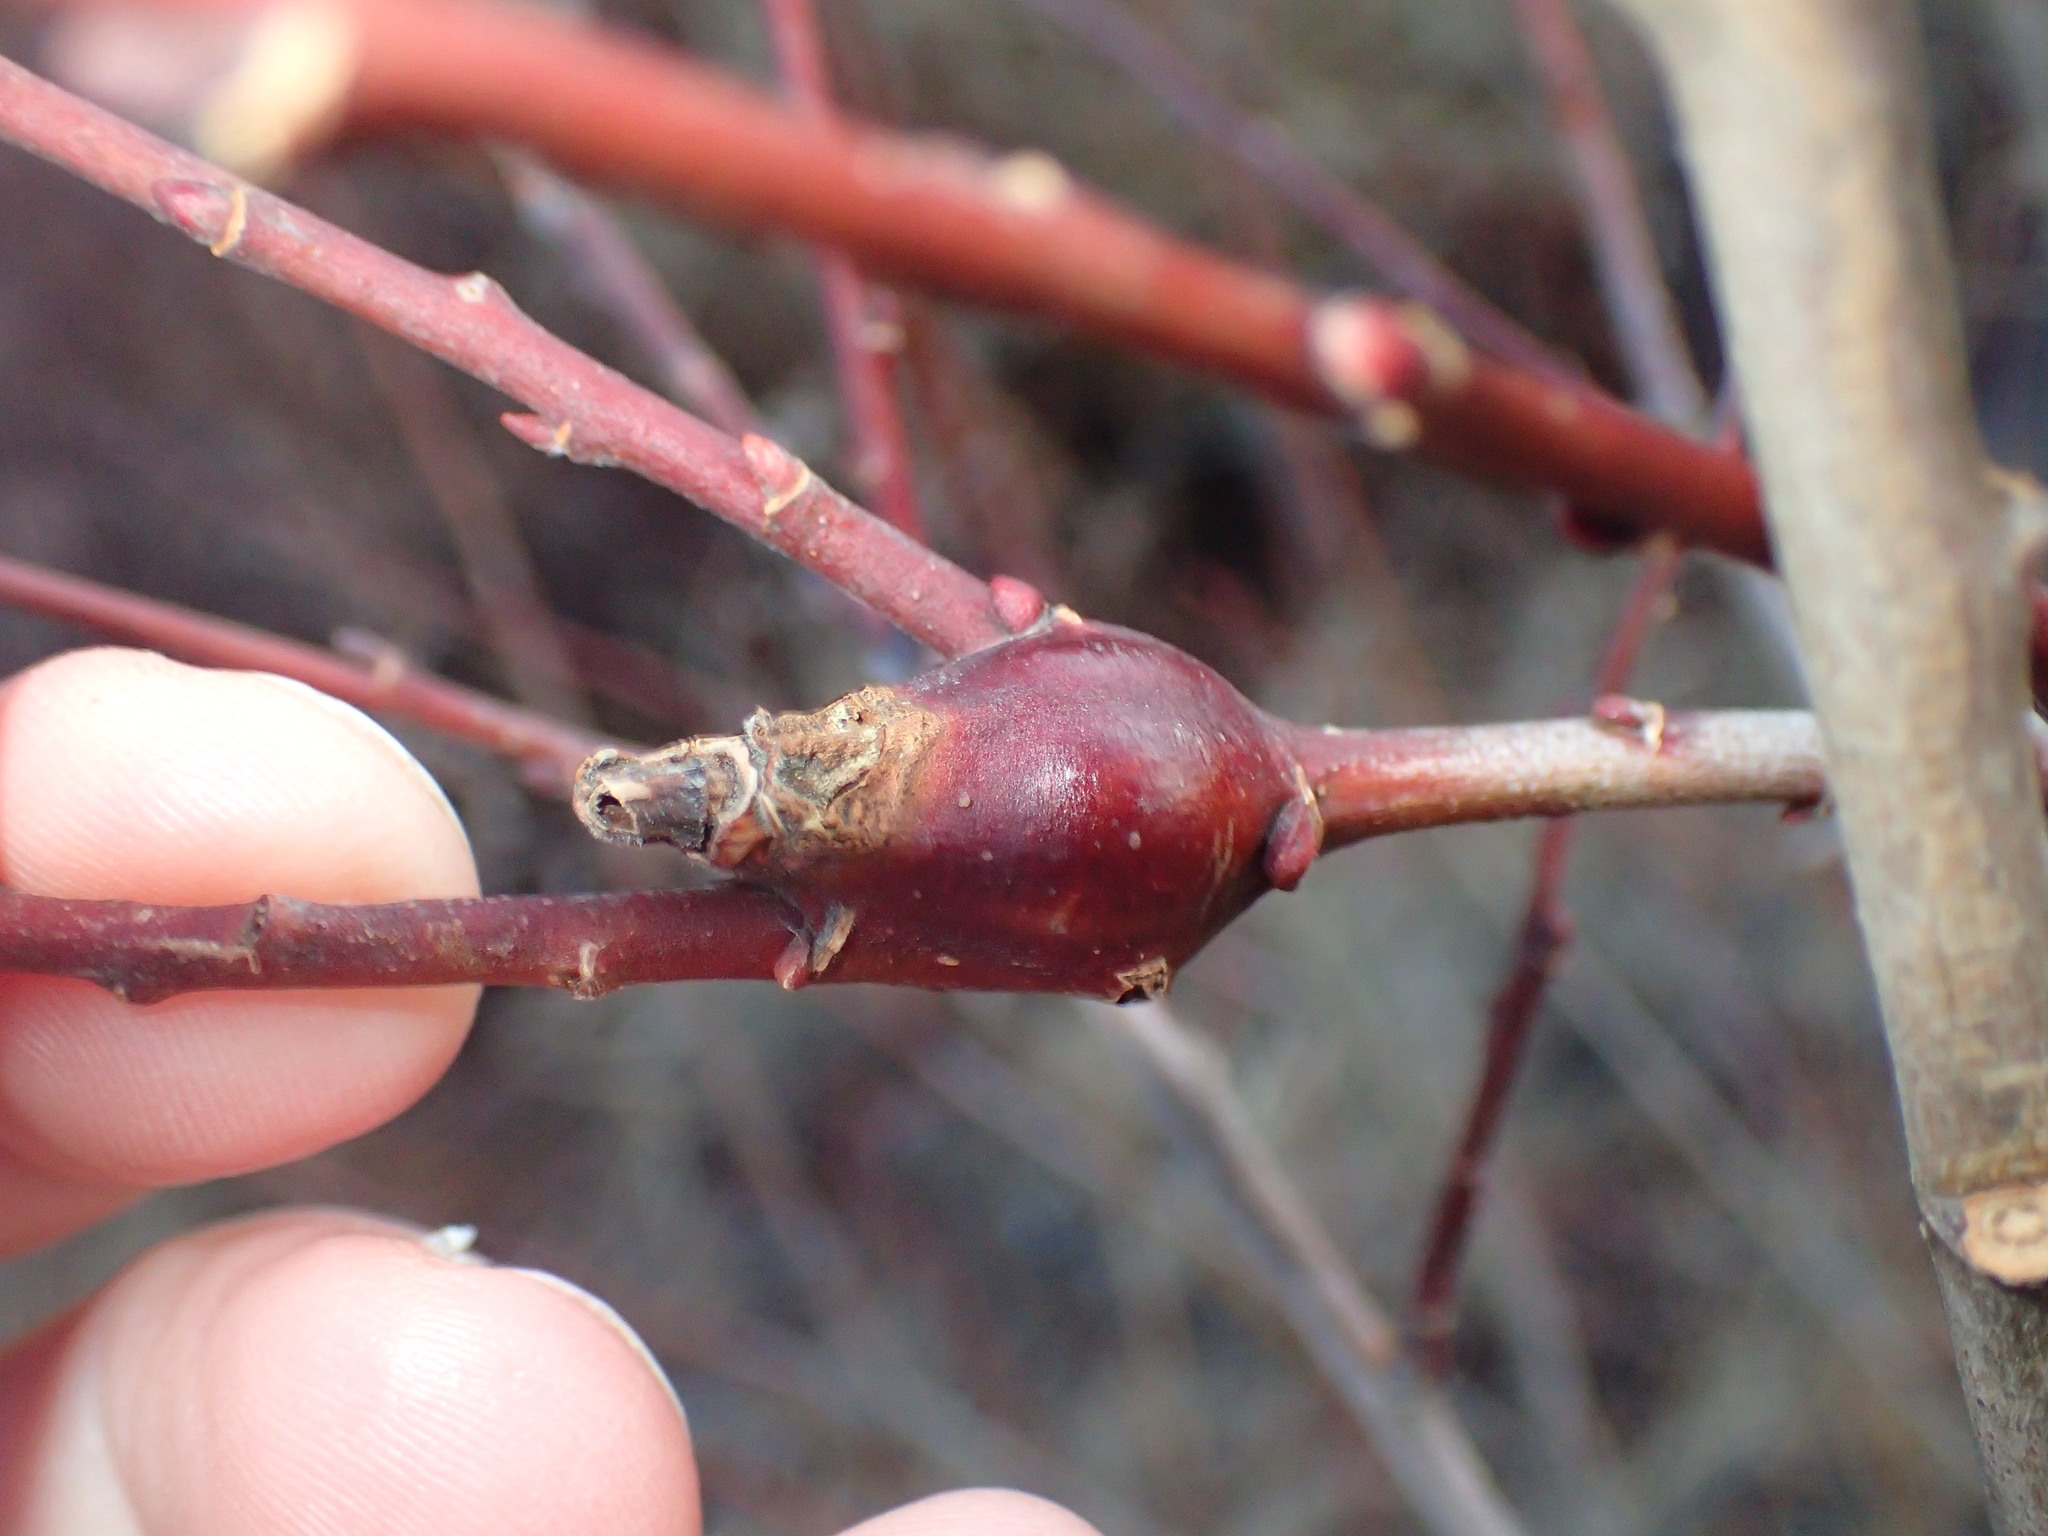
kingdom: Animalia
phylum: Arthropoda
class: Insecta
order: Diptera
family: Cecidomyiidae
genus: Thecodiplosis
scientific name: Thecodiplosis pinirigidae
